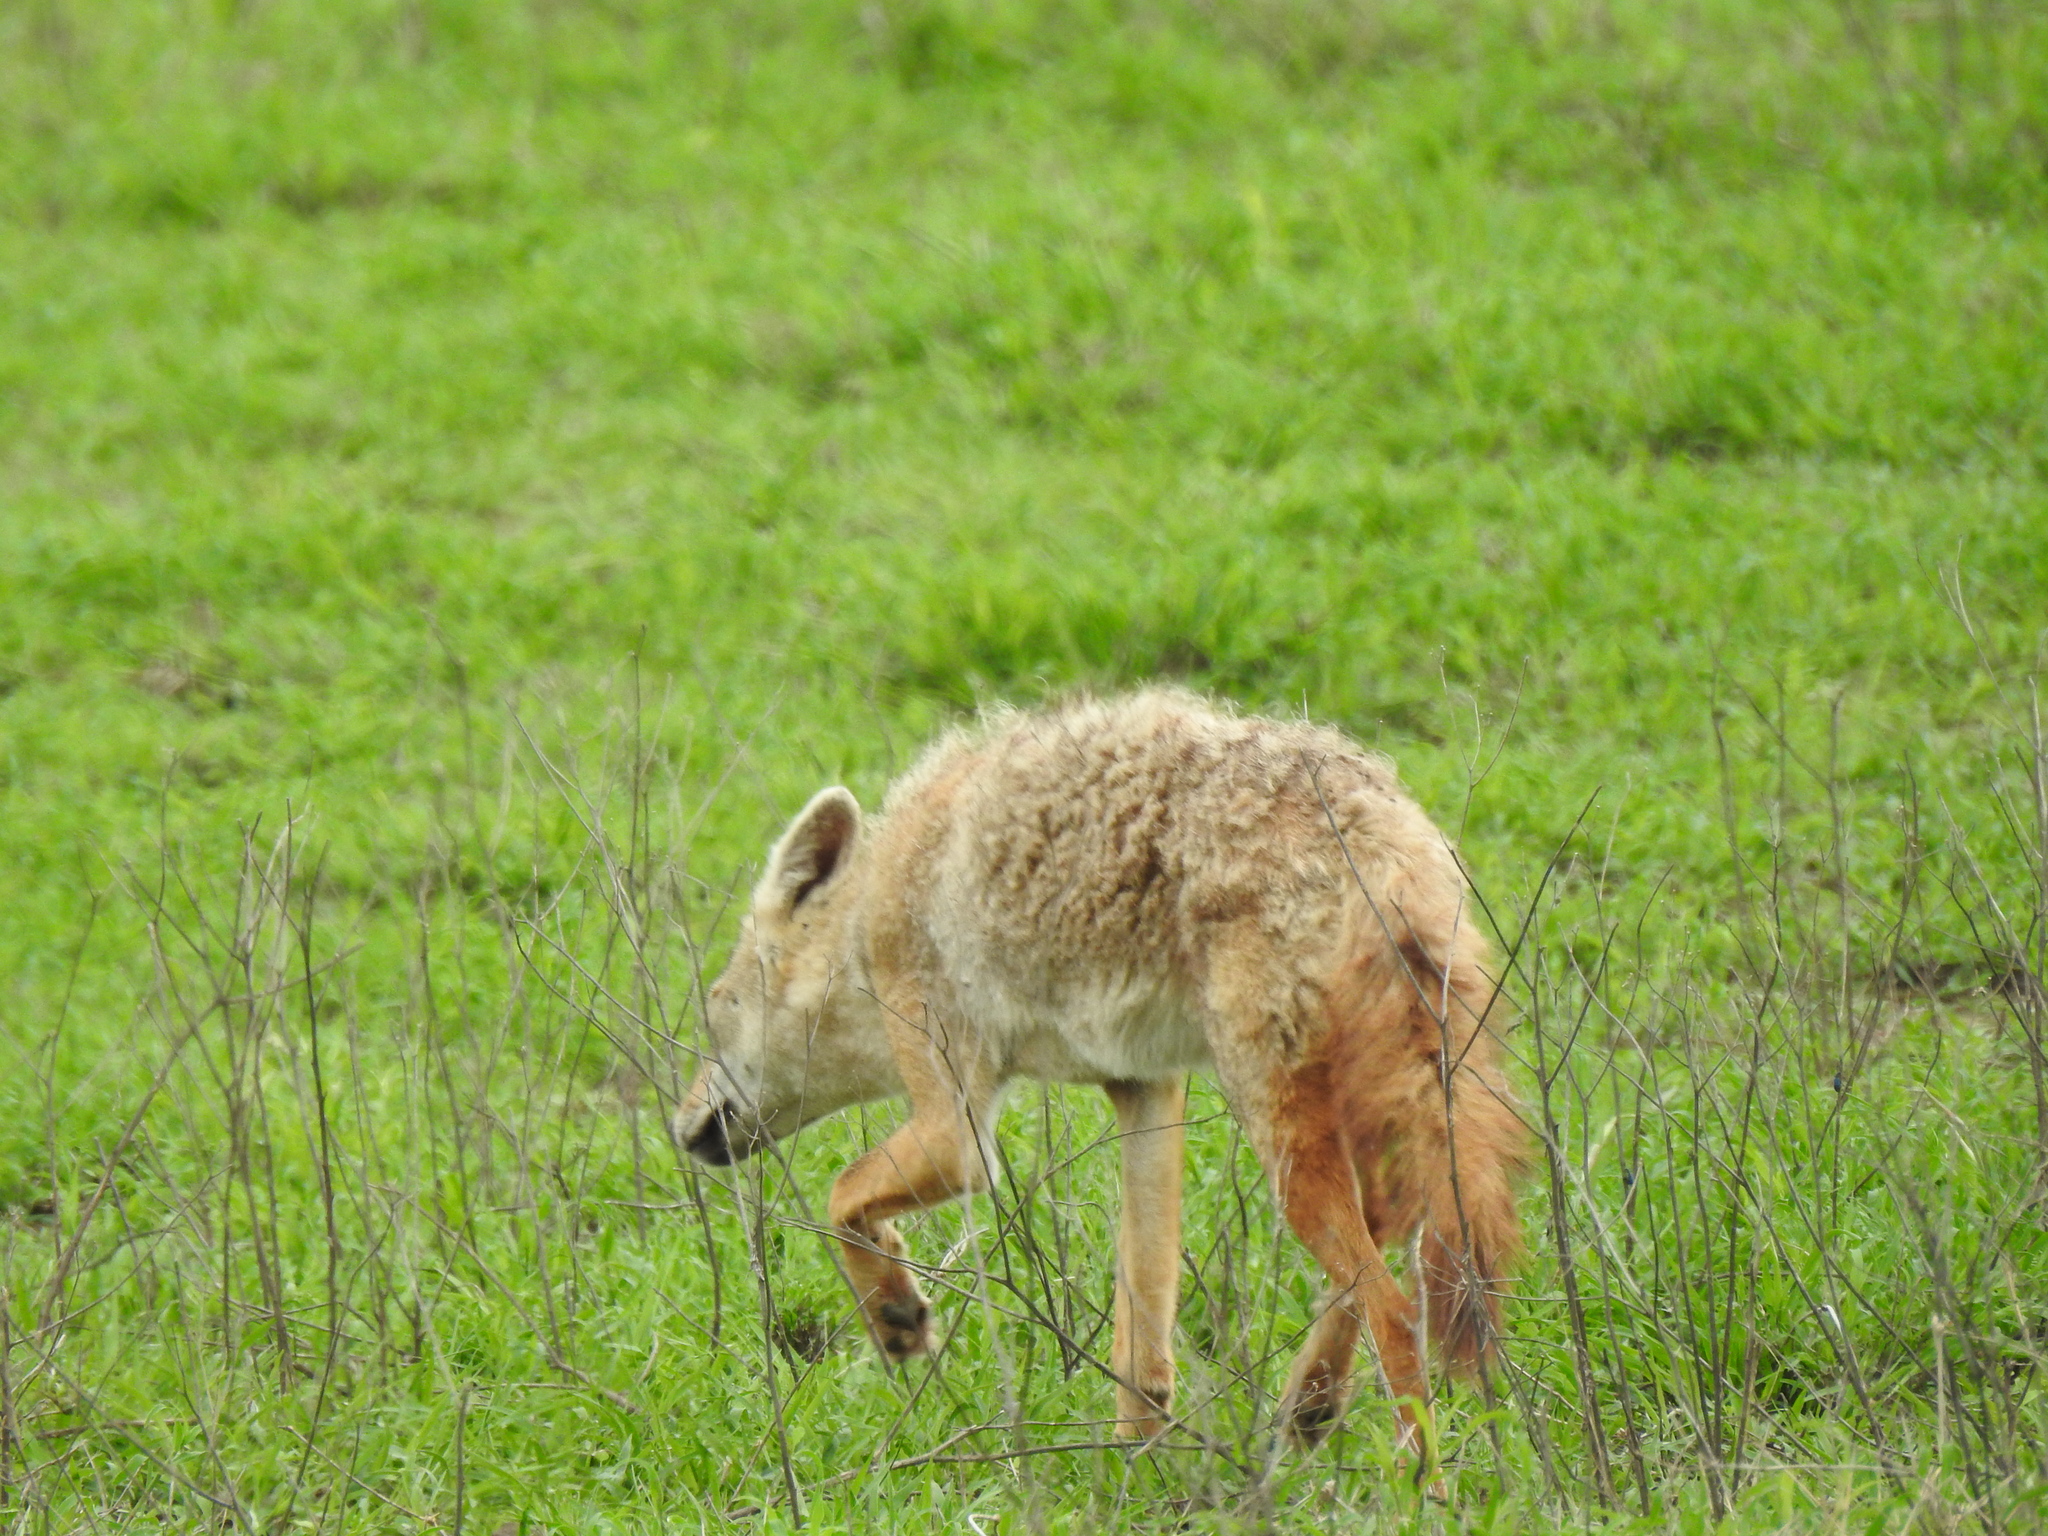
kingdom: Animalia
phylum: Chordata
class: Mammalia
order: Carnivora
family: Canidae
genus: Canis
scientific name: Canis lupaster
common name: African golden wolf
